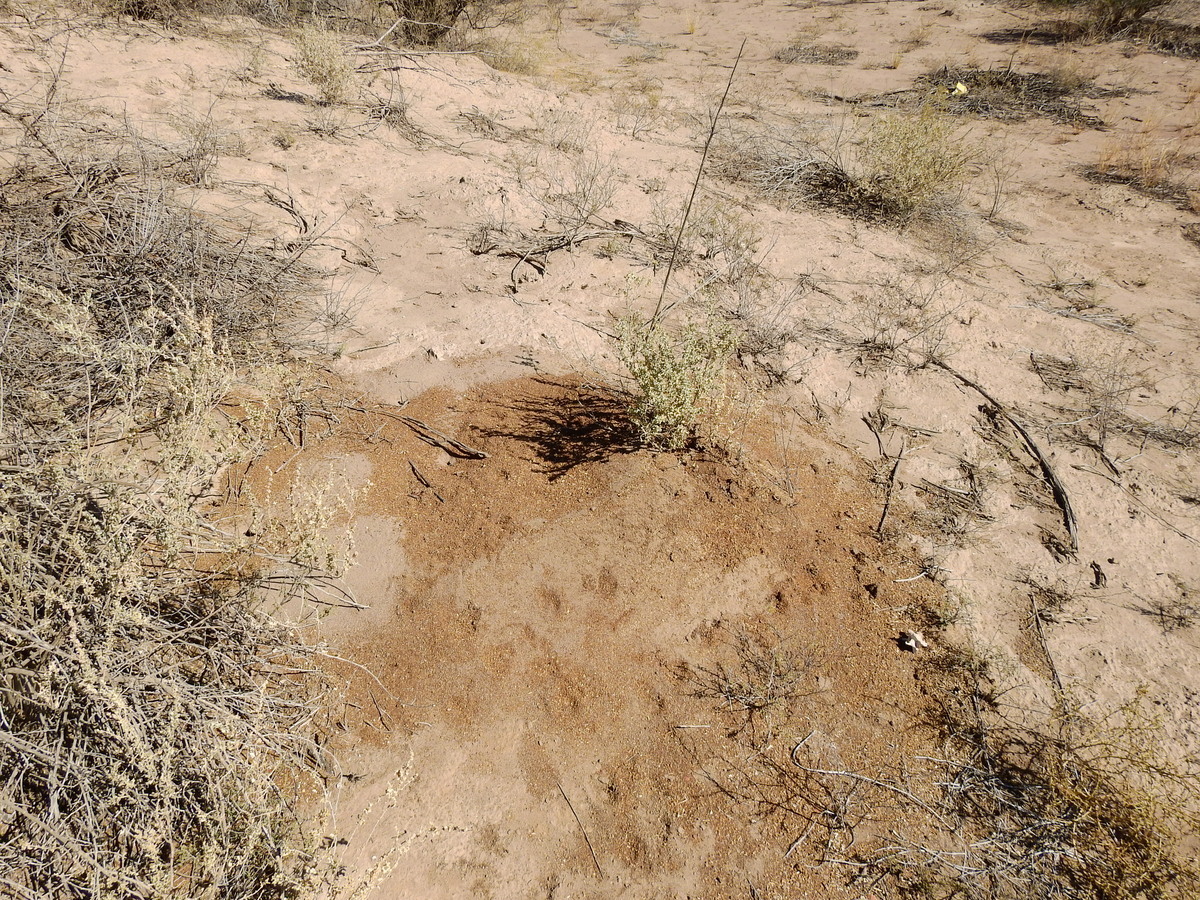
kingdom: Animalia
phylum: Arthropoda
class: Insecta
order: Hymenoptera
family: Formicidae
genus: Acromyrmex
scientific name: Acromyrmex lobicornis
